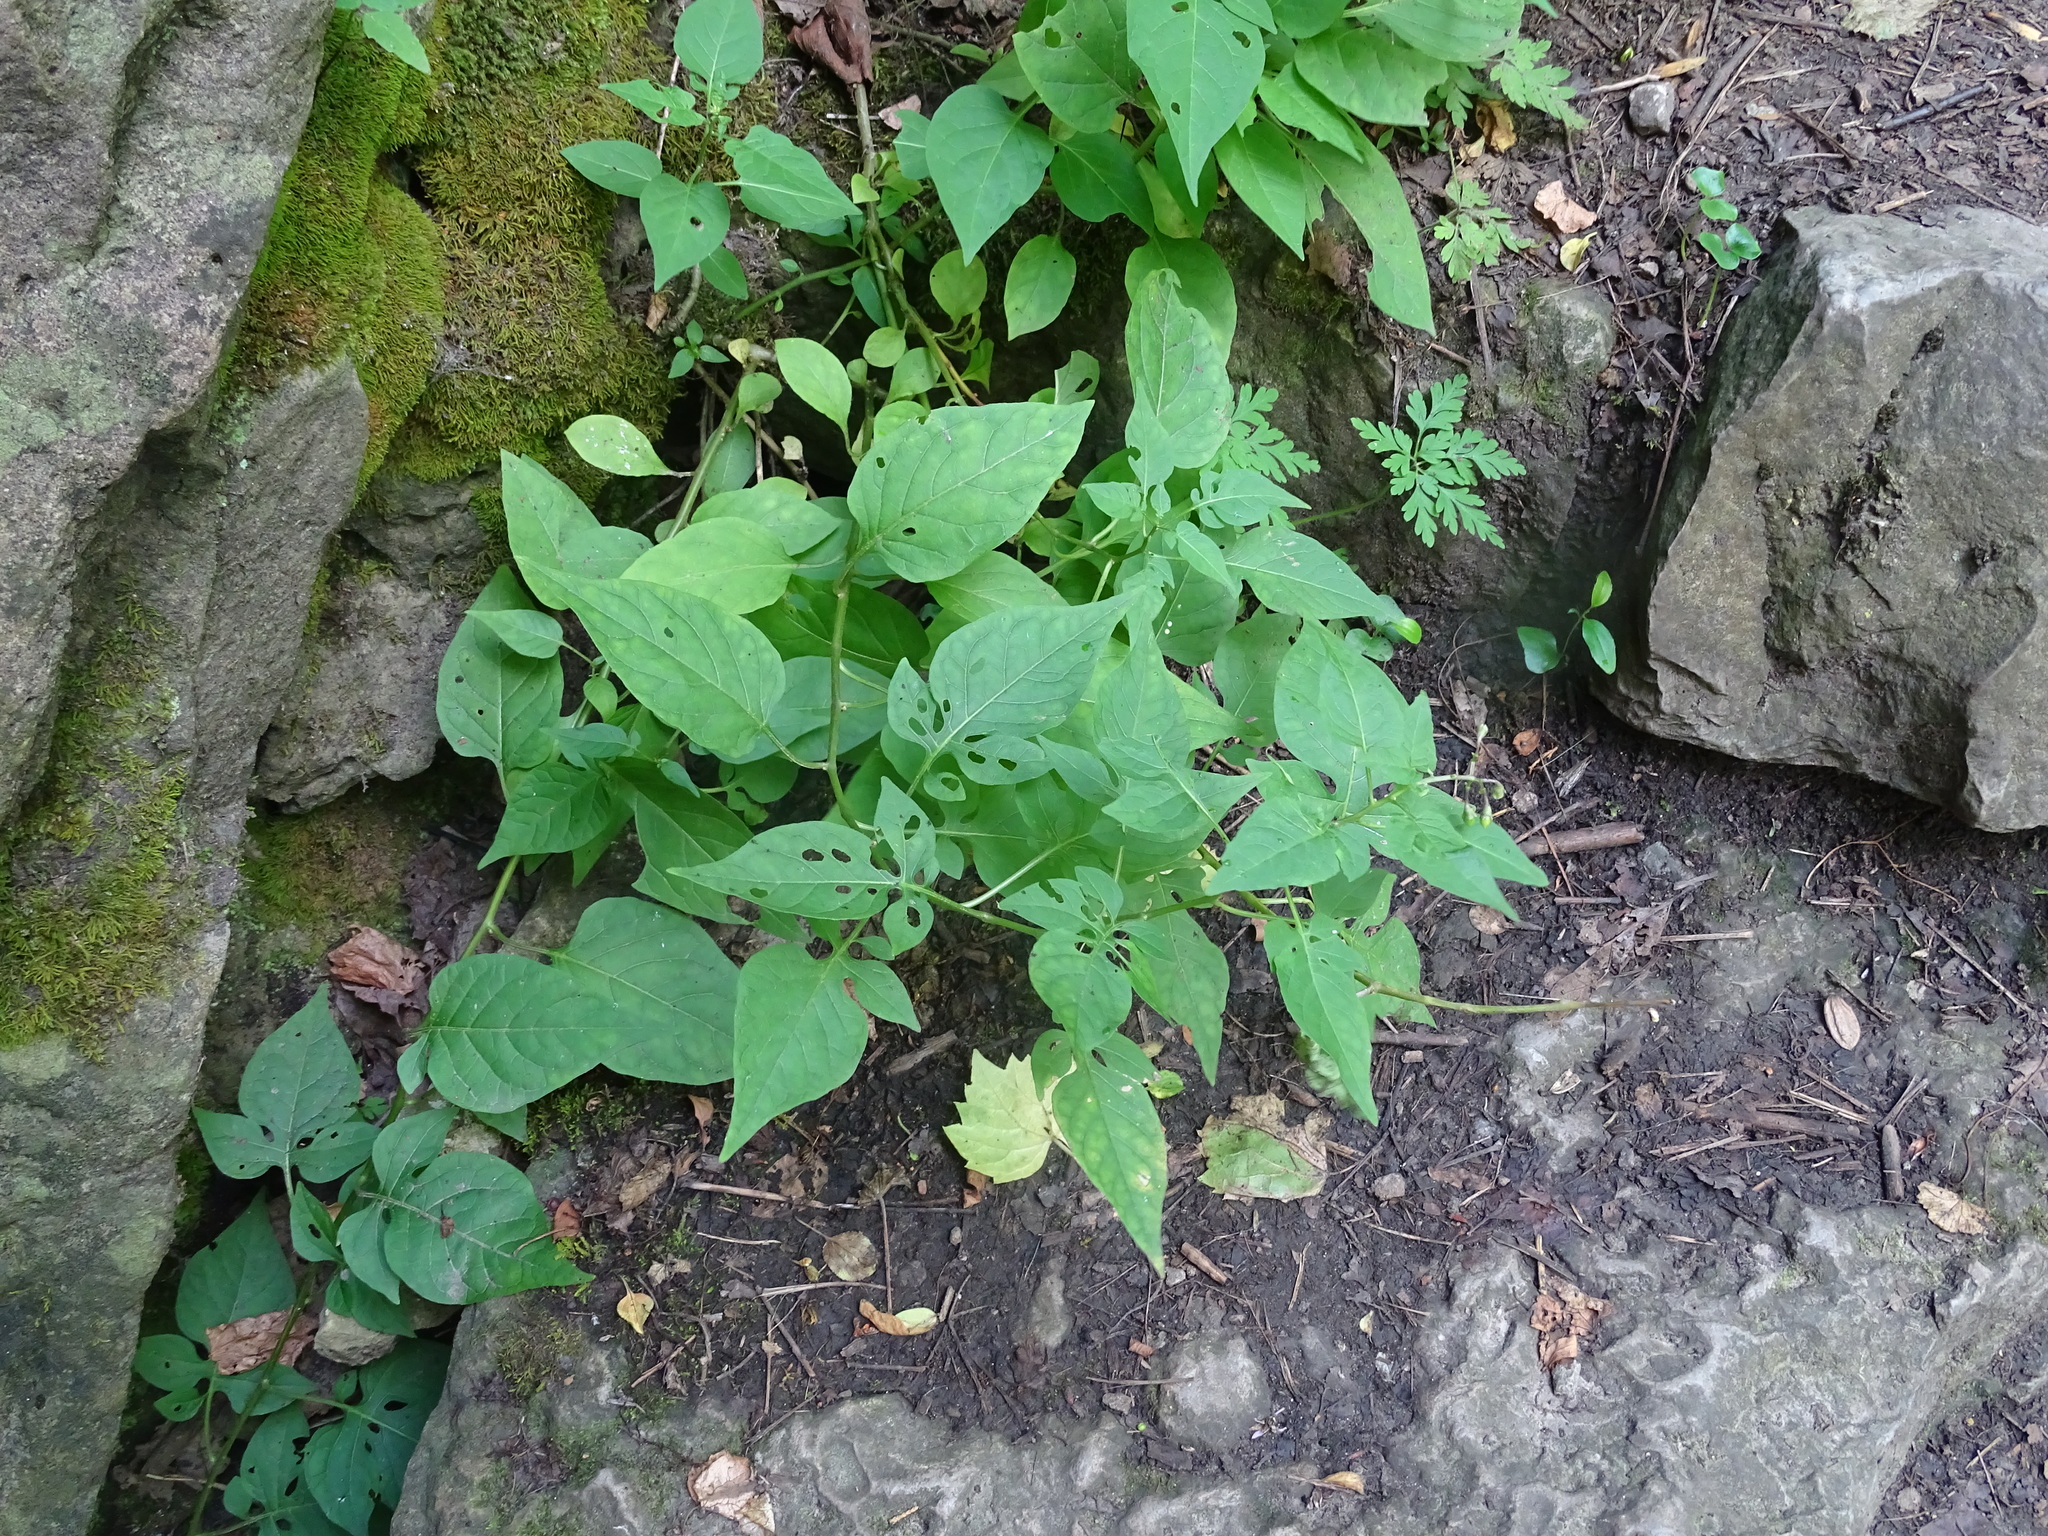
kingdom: Plantae
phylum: Tracheophyta
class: Magnoliopsida
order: Solanales
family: Solanaceae
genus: Solanum
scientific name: Solanum dulcamara
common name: Climbing nightshade
